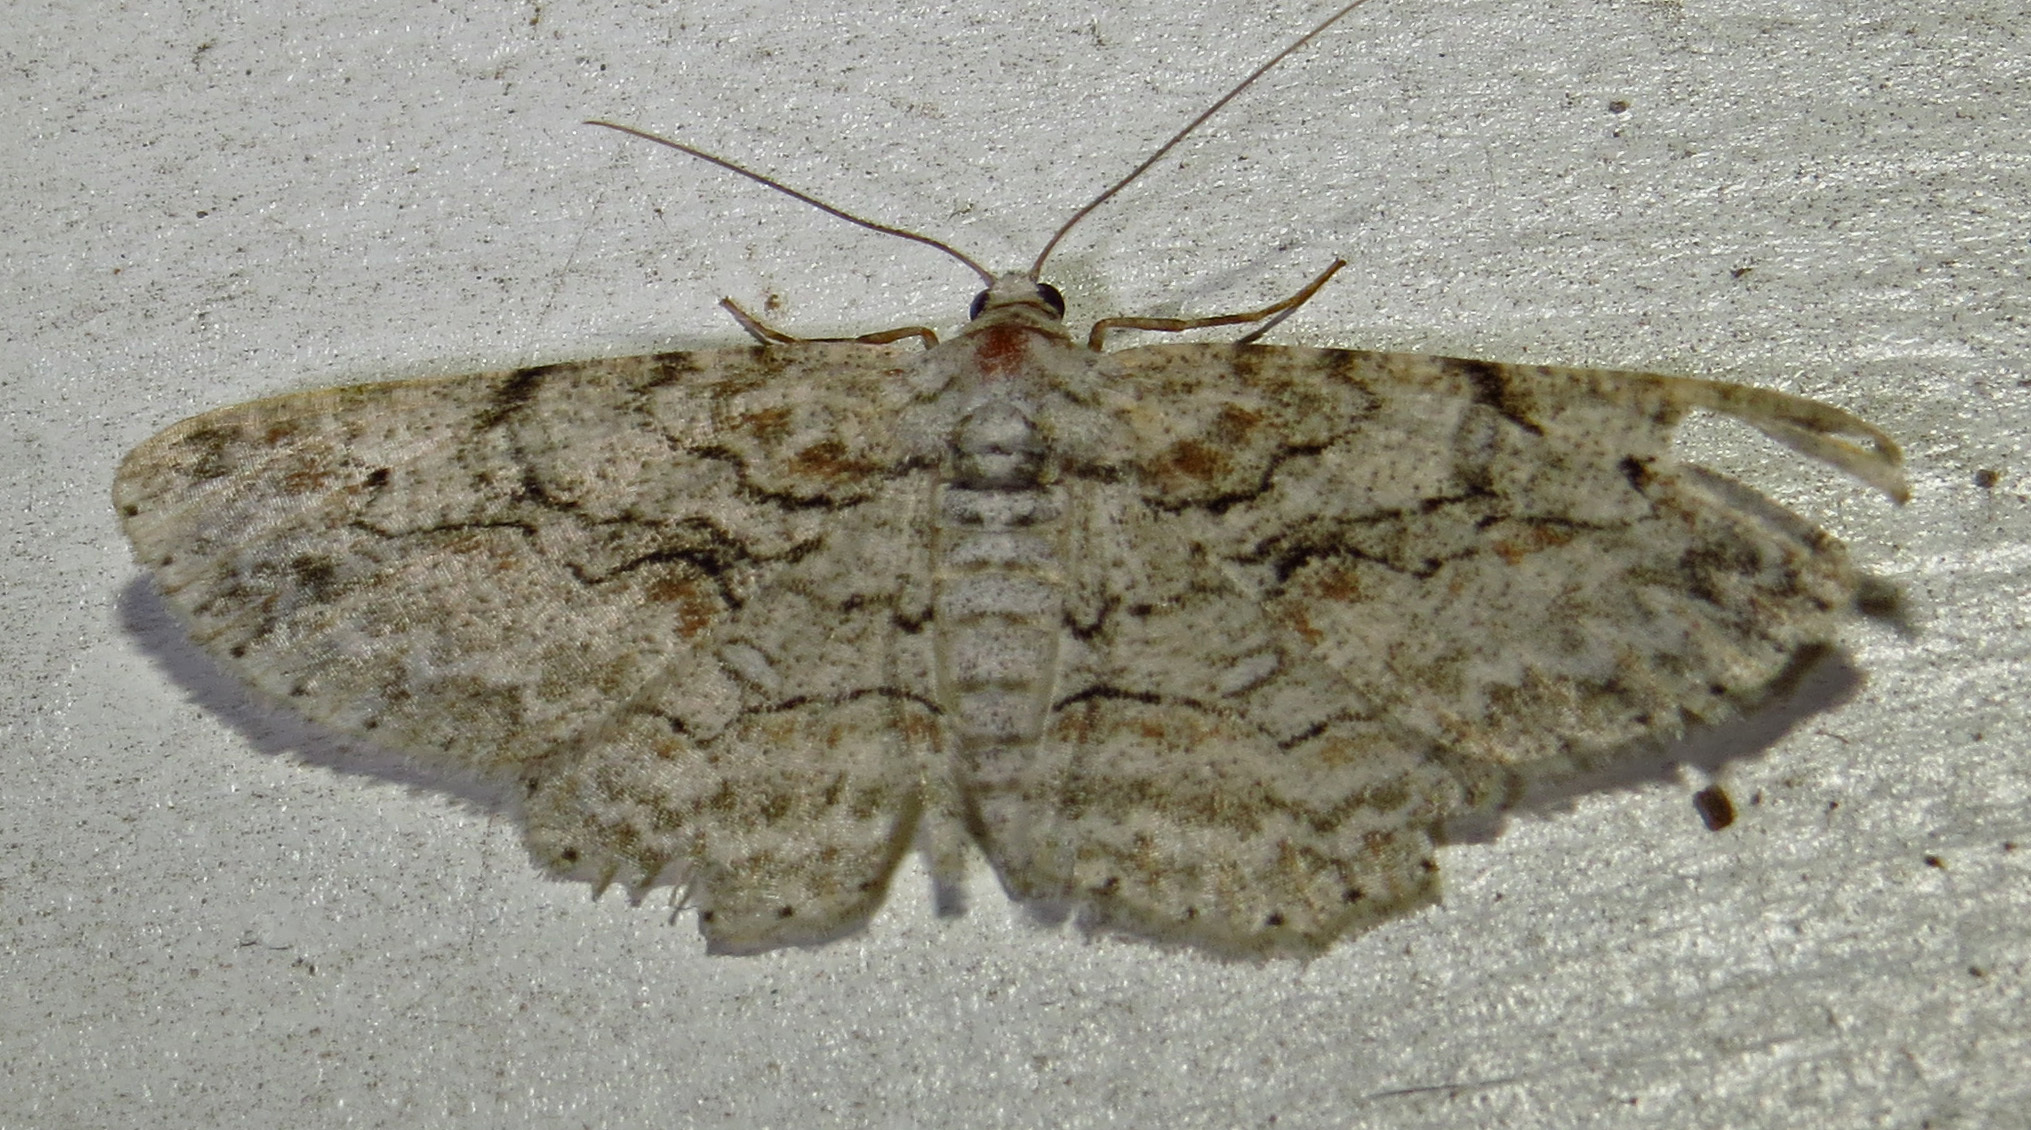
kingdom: Animalia
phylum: Arthropoda
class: Insecta
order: Lepidoptera
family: Geometridae
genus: Iridopsis
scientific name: Iridopsis defectaria
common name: Brown-shaded gray
